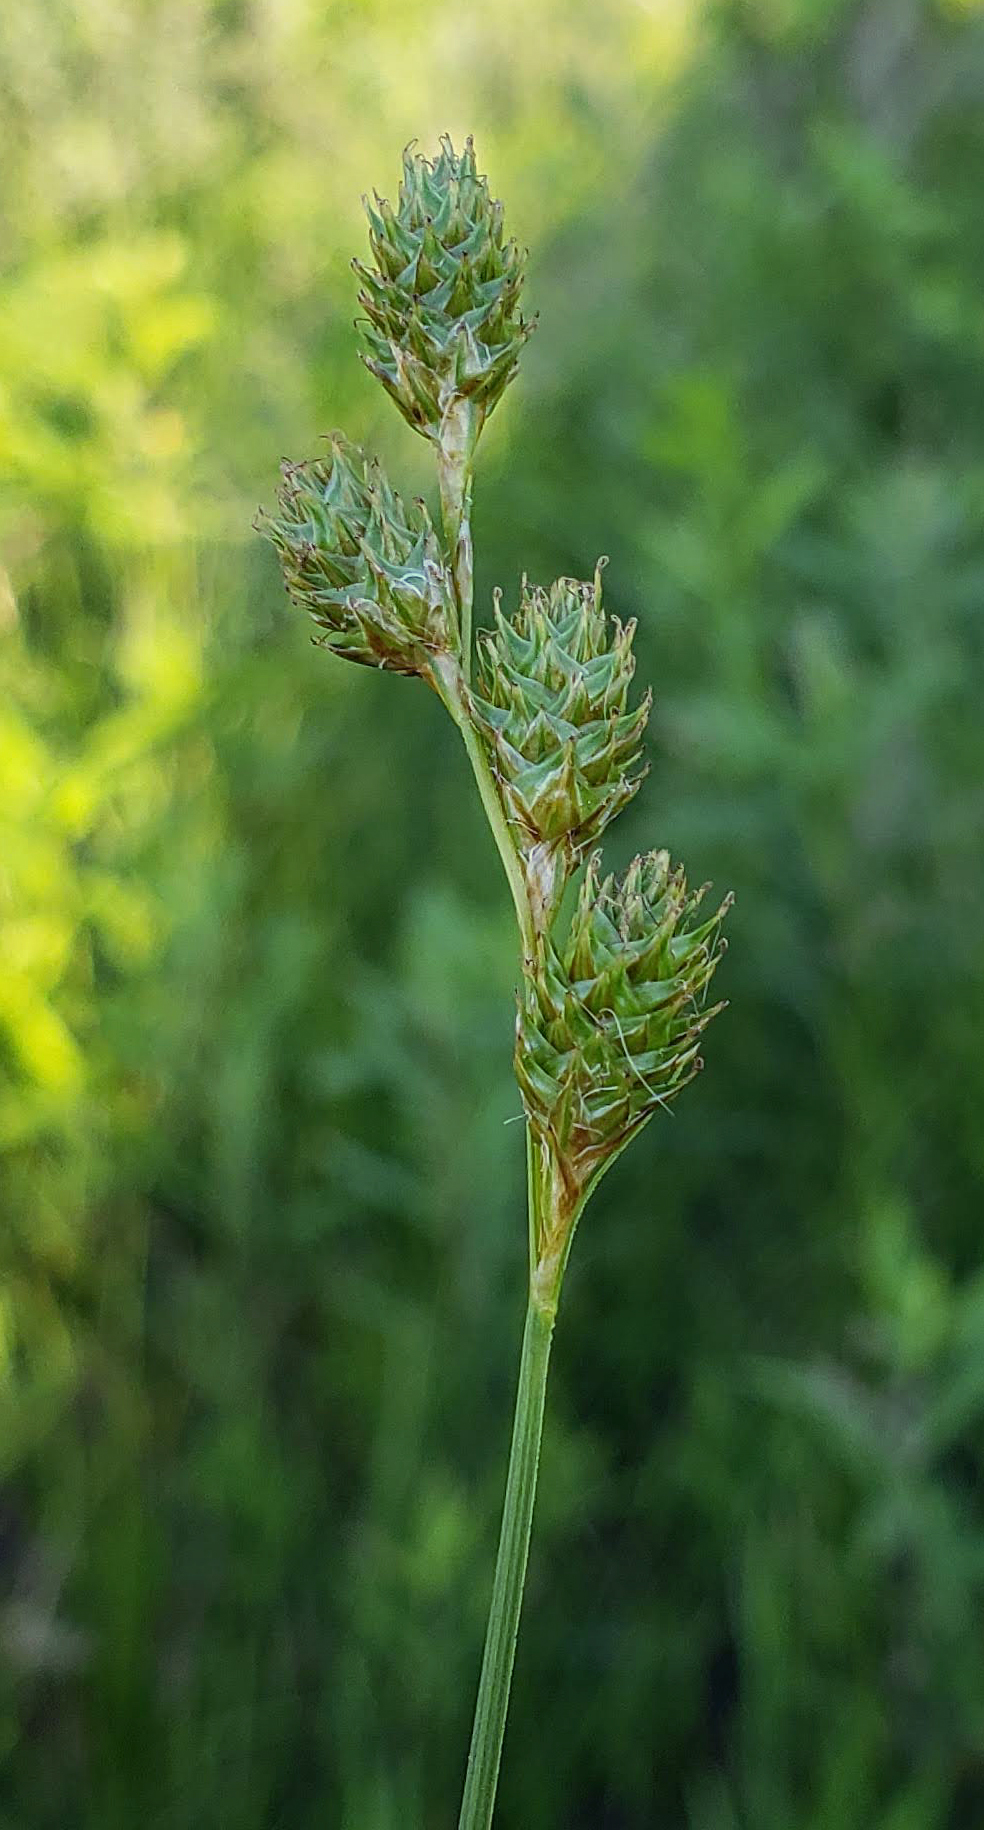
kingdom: Plantae
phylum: Tracheophyta
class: Liliopsida
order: Poales
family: Cyperaceae
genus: Carex
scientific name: Carex bicknellii
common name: Bicknell's sedge
